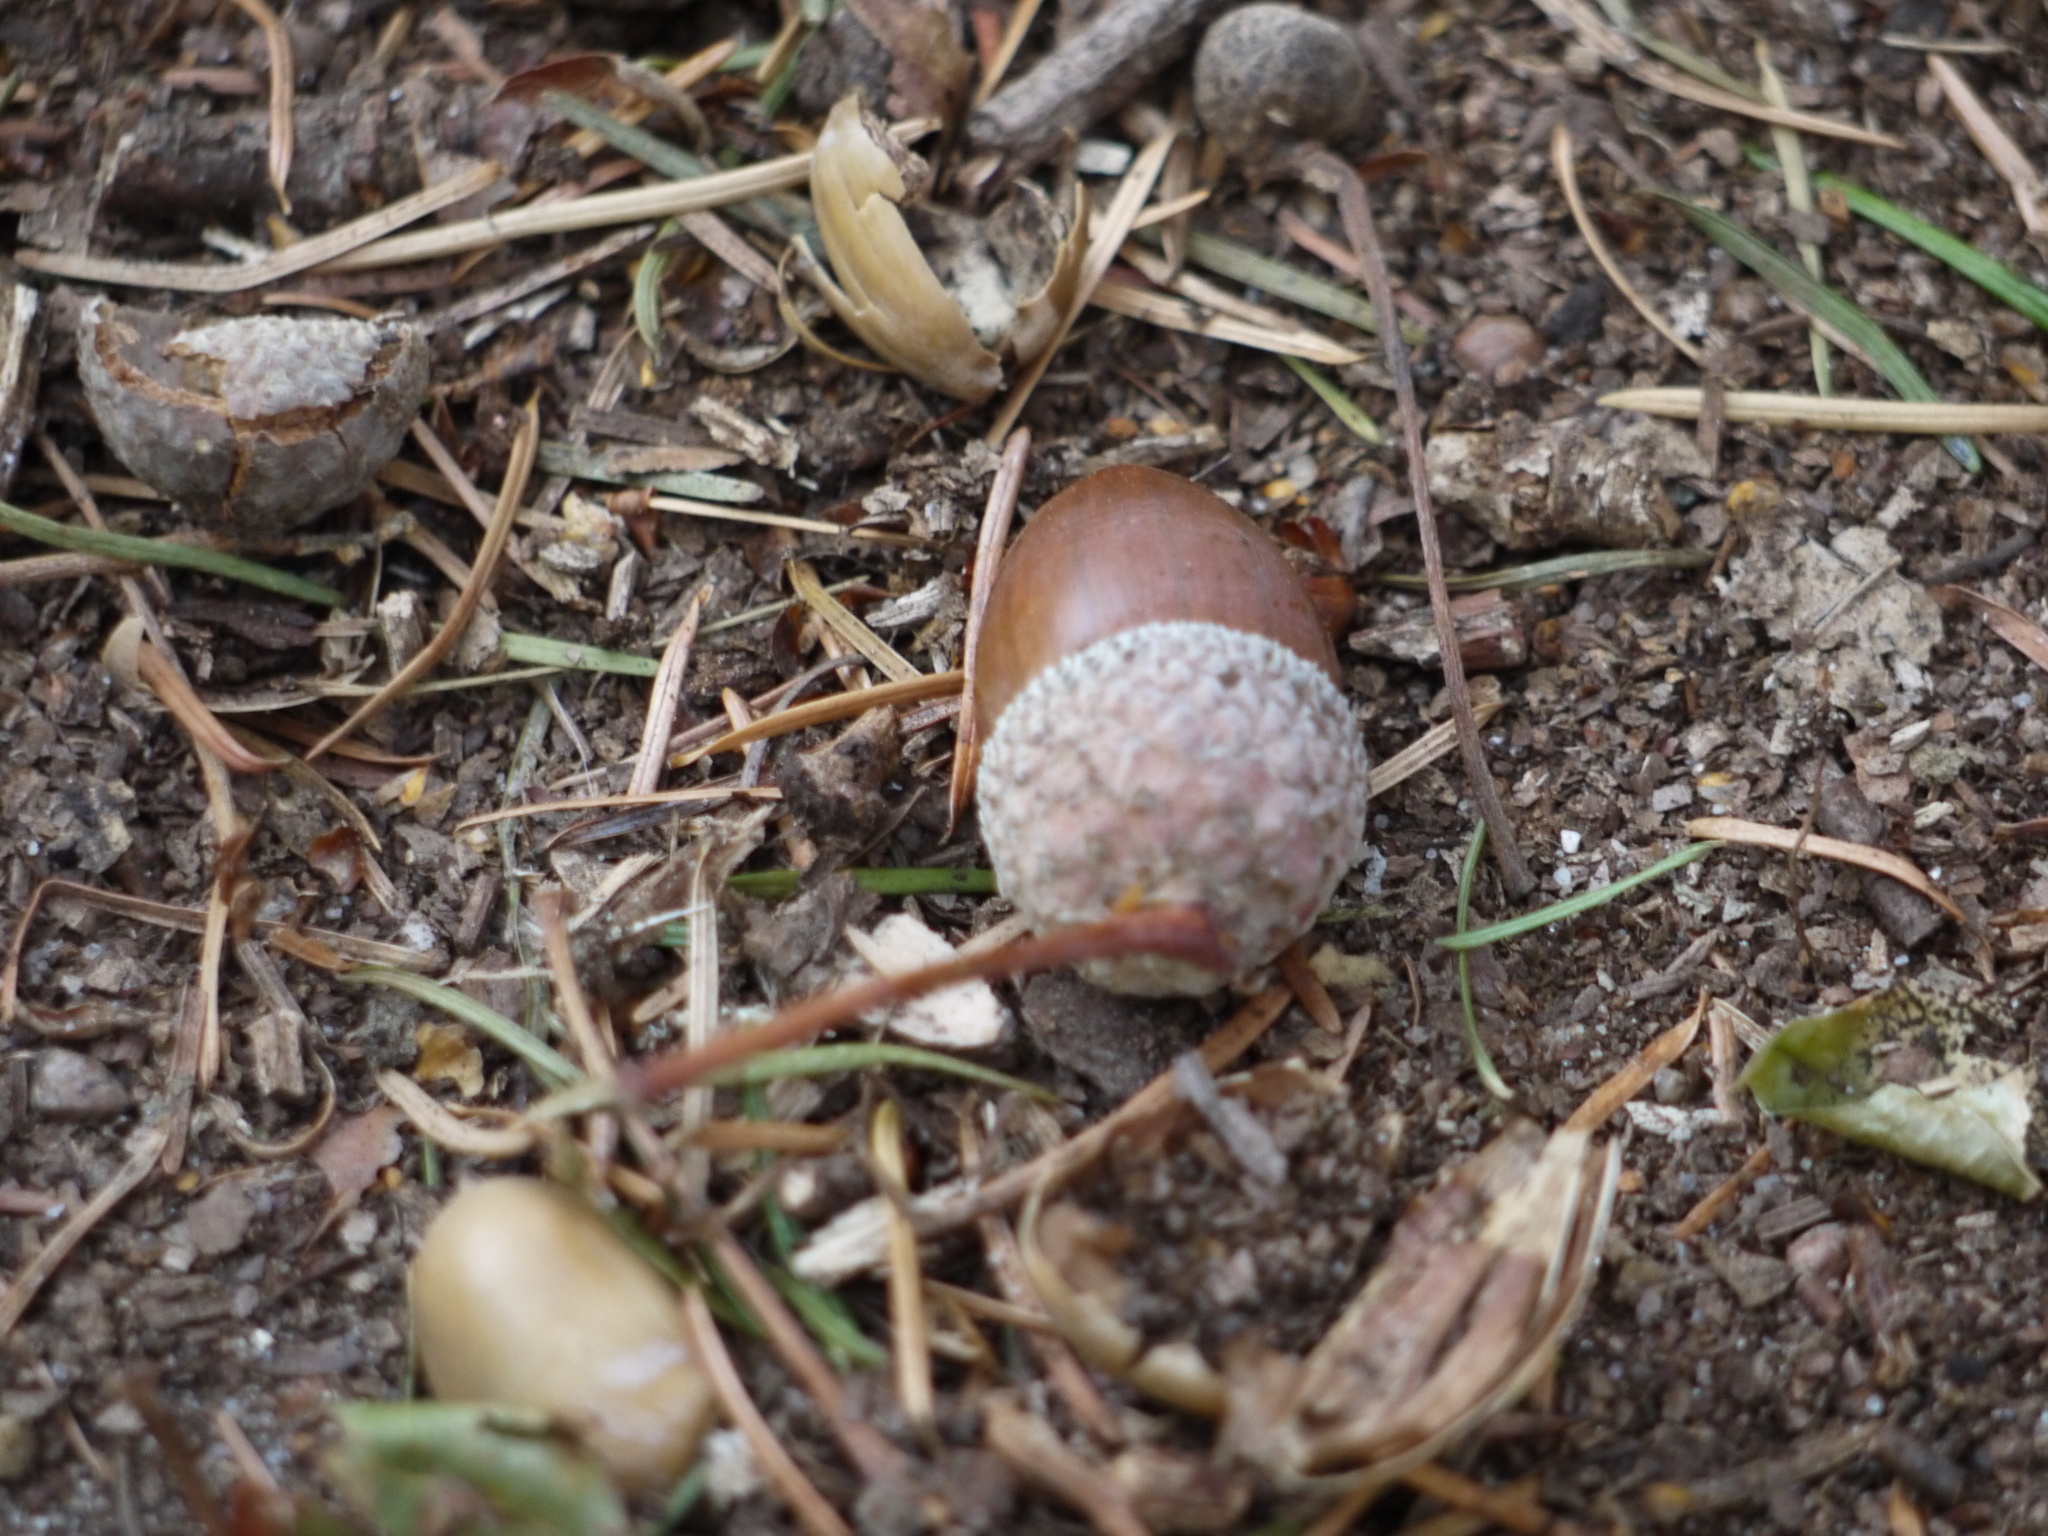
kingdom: Plantae
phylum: Tracheophyta
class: Magnoliopsida
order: Fagales
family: Fagaceae
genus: Quercus
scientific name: Quercus robur
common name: Pedunculate oak
